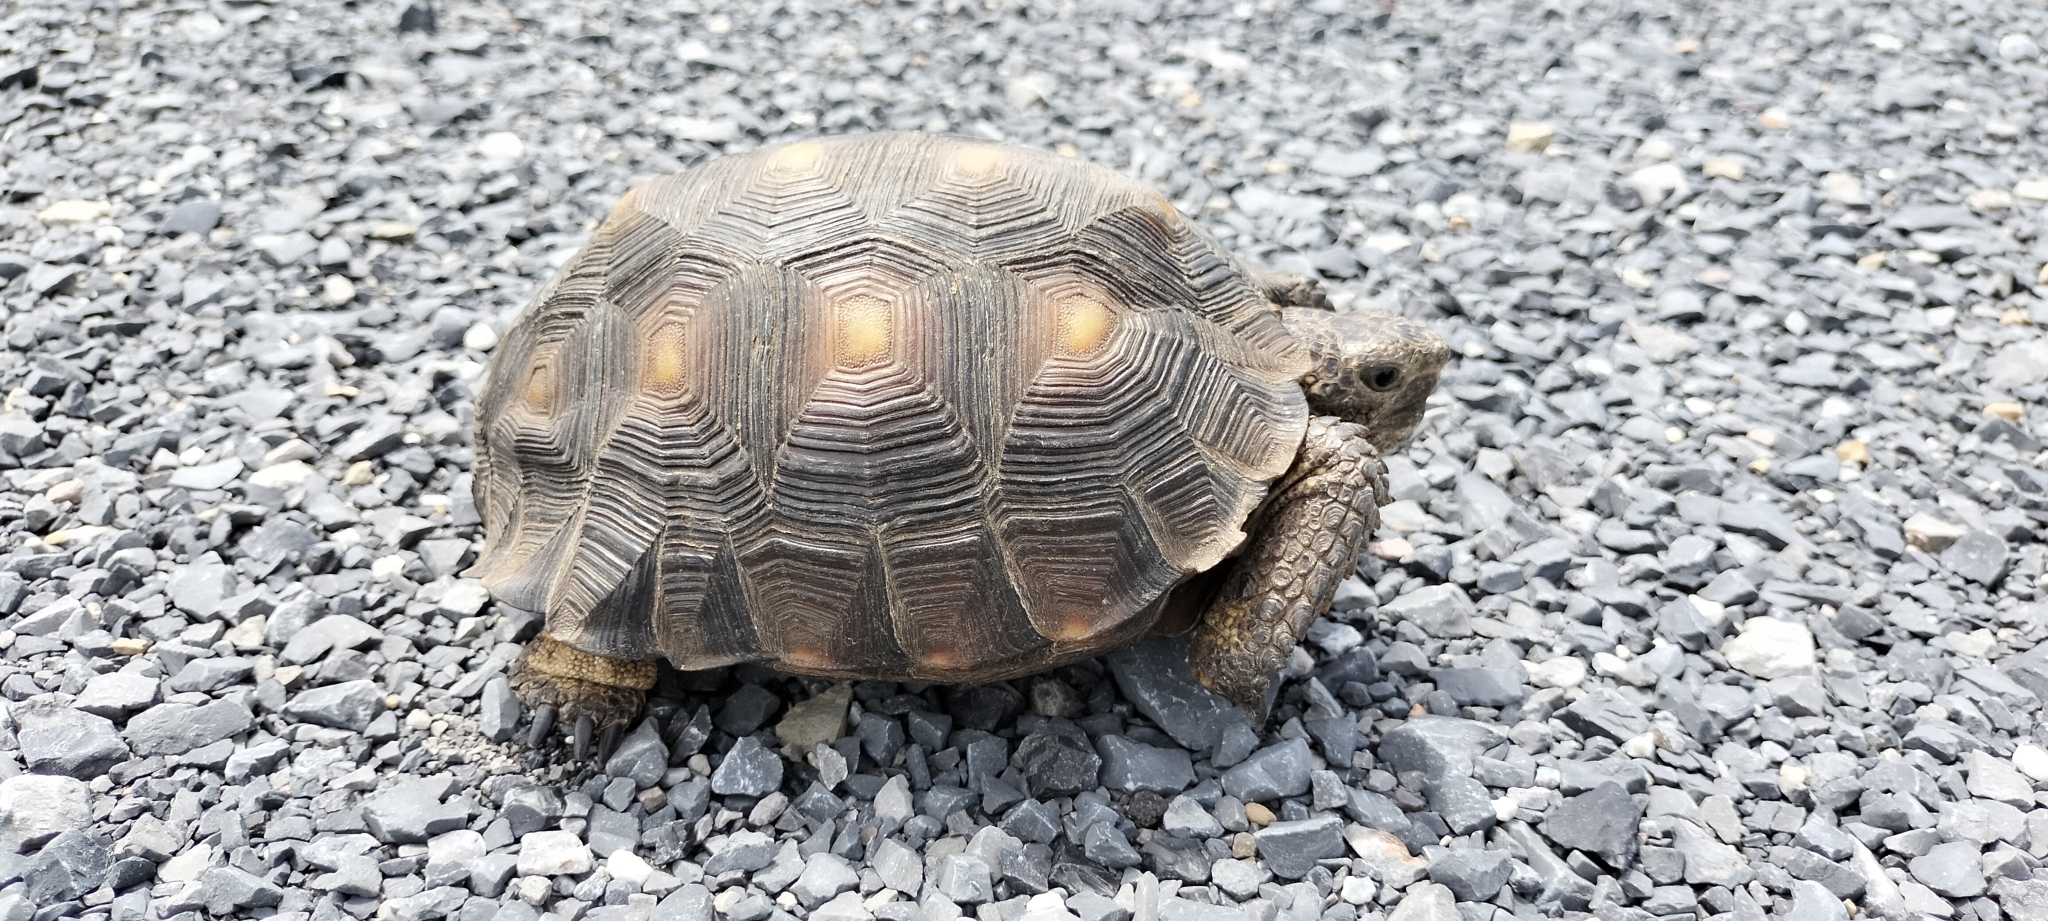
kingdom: Animalia
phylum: Chordata
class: Testudines
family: Testudinidae
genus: Gopherus
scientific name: Gopherus berlandieri
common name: Texas (gopher )tortoise
